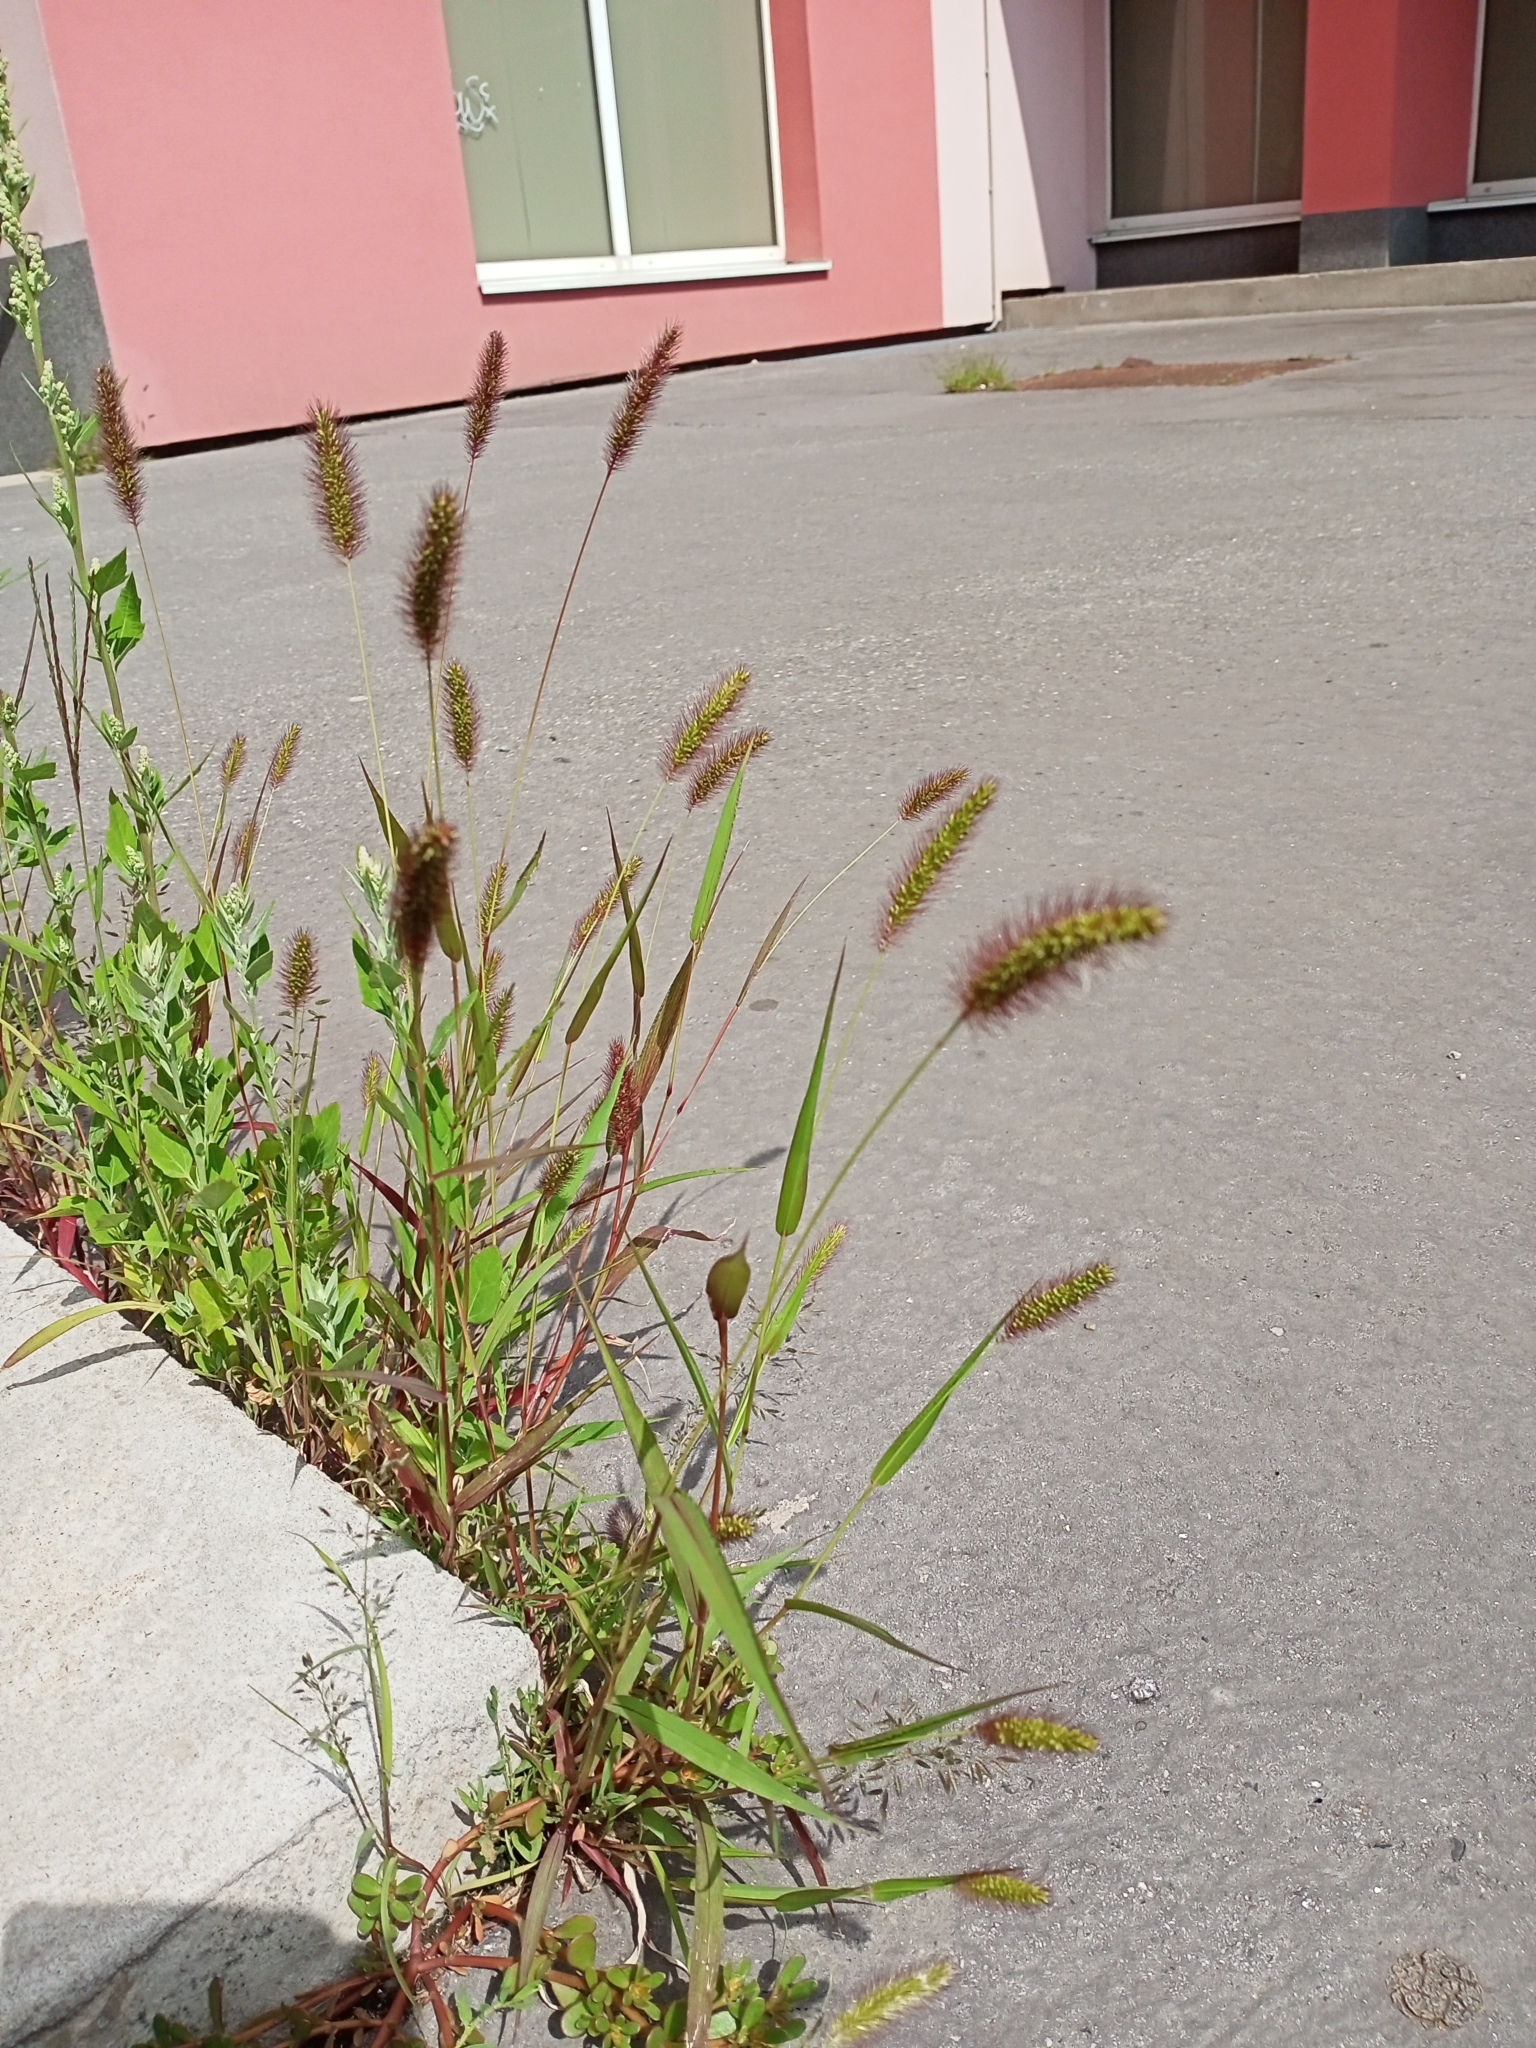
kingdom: Plantae
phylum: Tracheophyta
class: Liliopsida
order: Poales
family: Poaceae
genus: Setaria
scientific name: Setaria viridis
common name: Green bristlegrass
